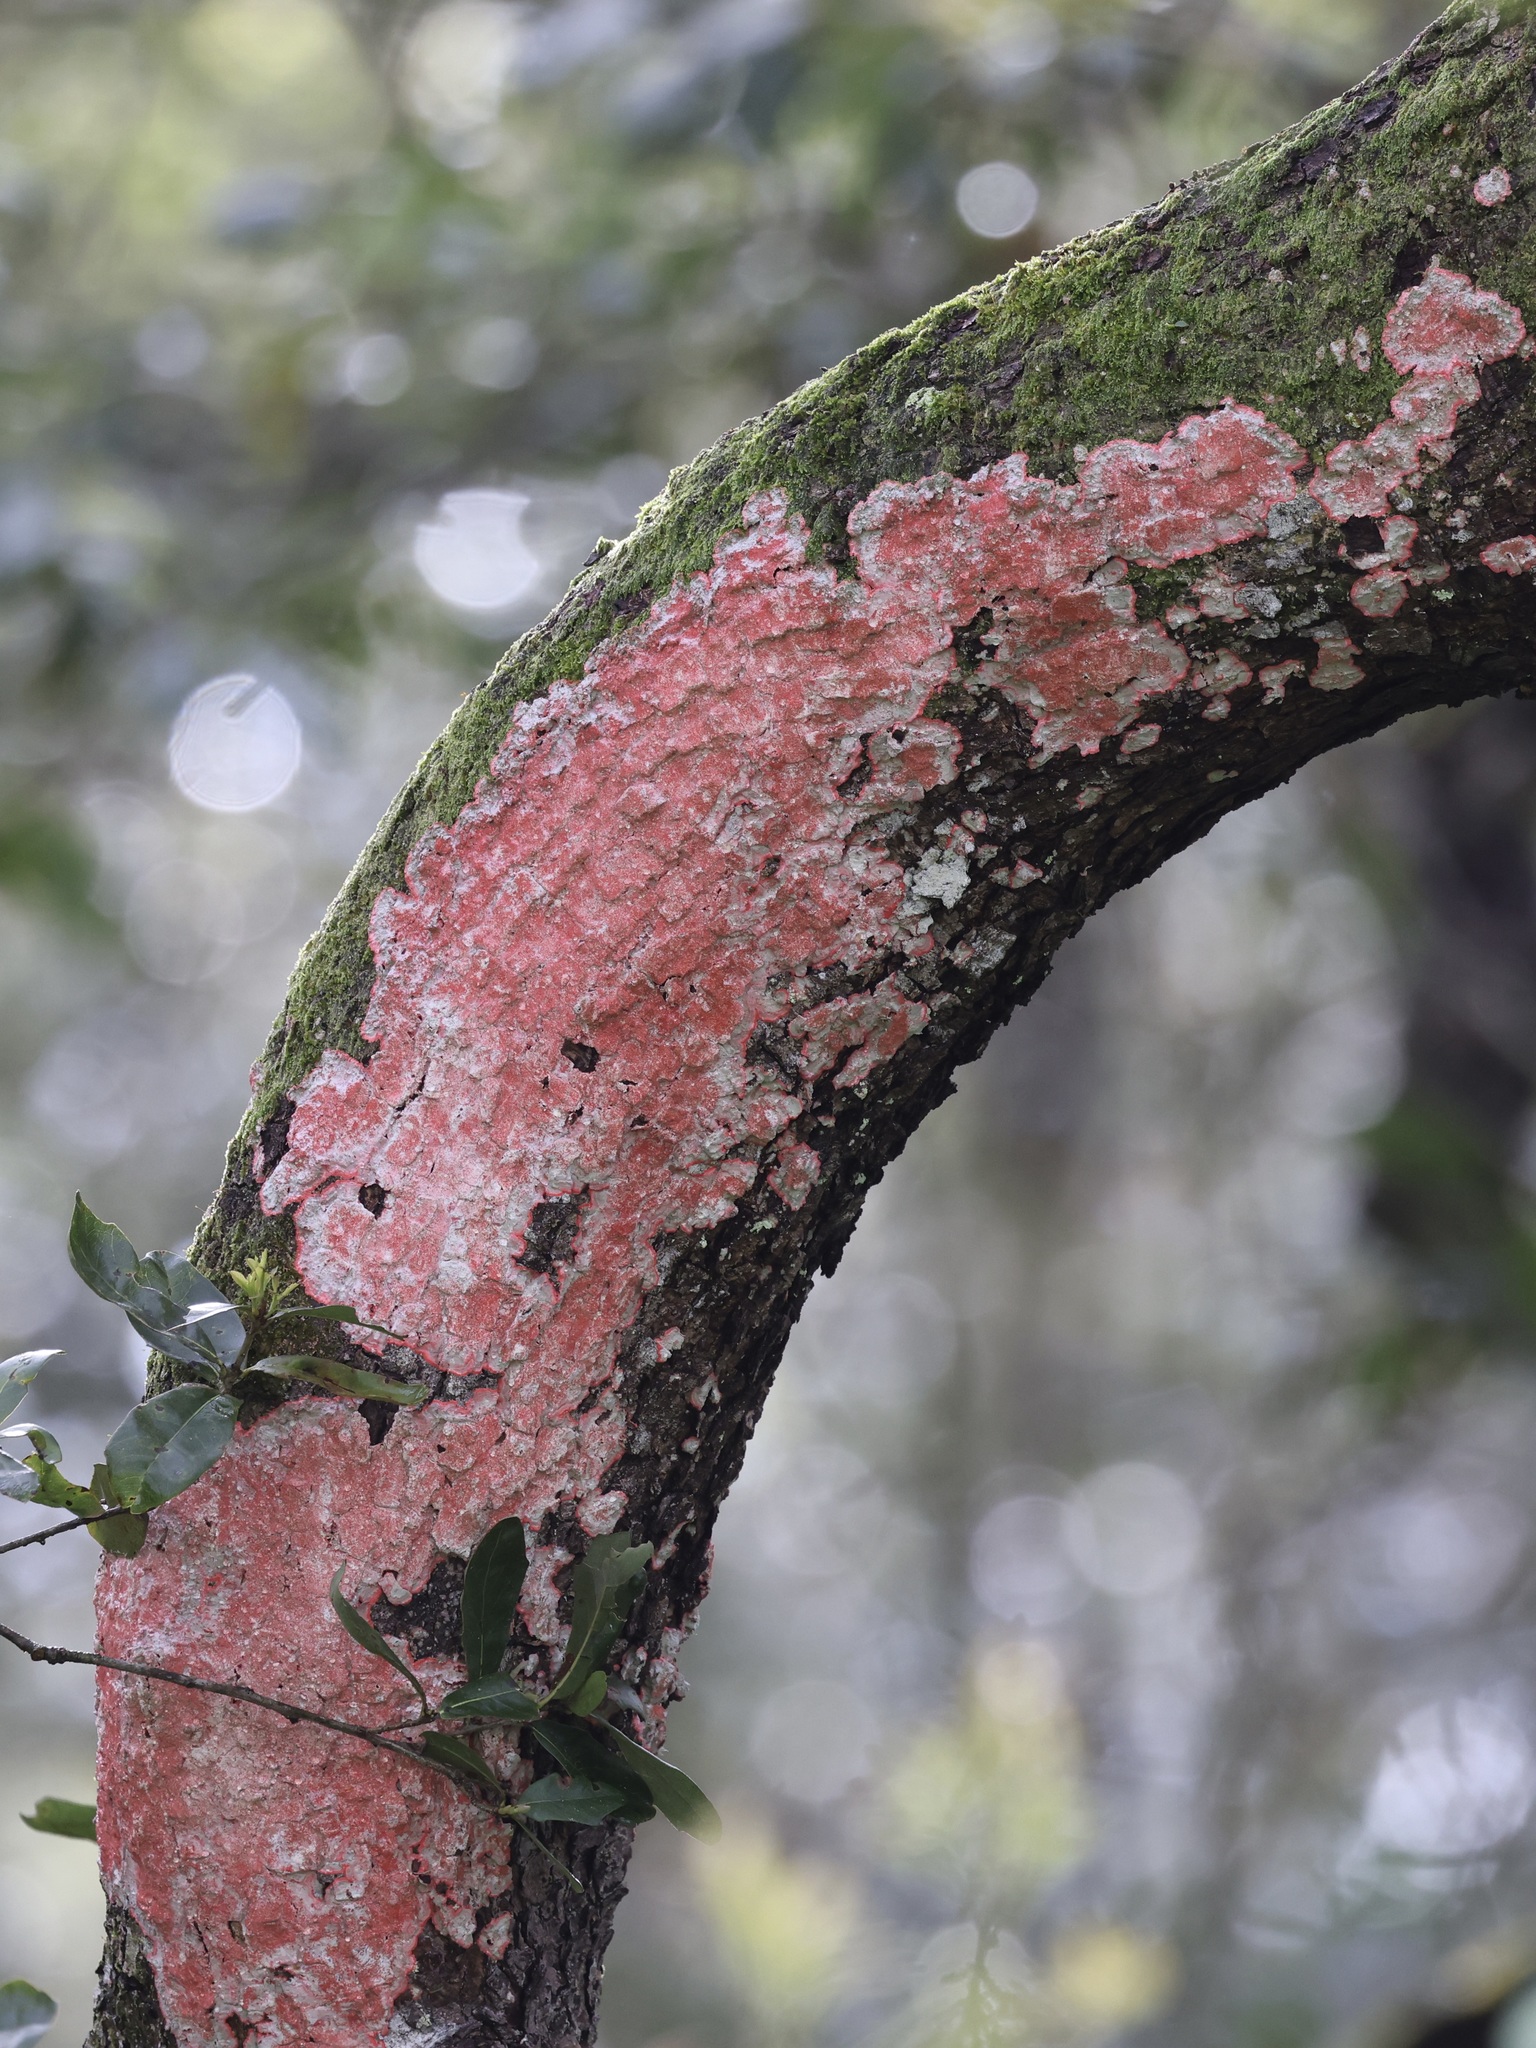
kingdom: Fungi
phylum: Ascomycota
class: Arthoniomycetes
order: Arthoniales
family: Arthoniaceae
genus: Herpothallon
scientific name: Herpothallon rubrocinctum
